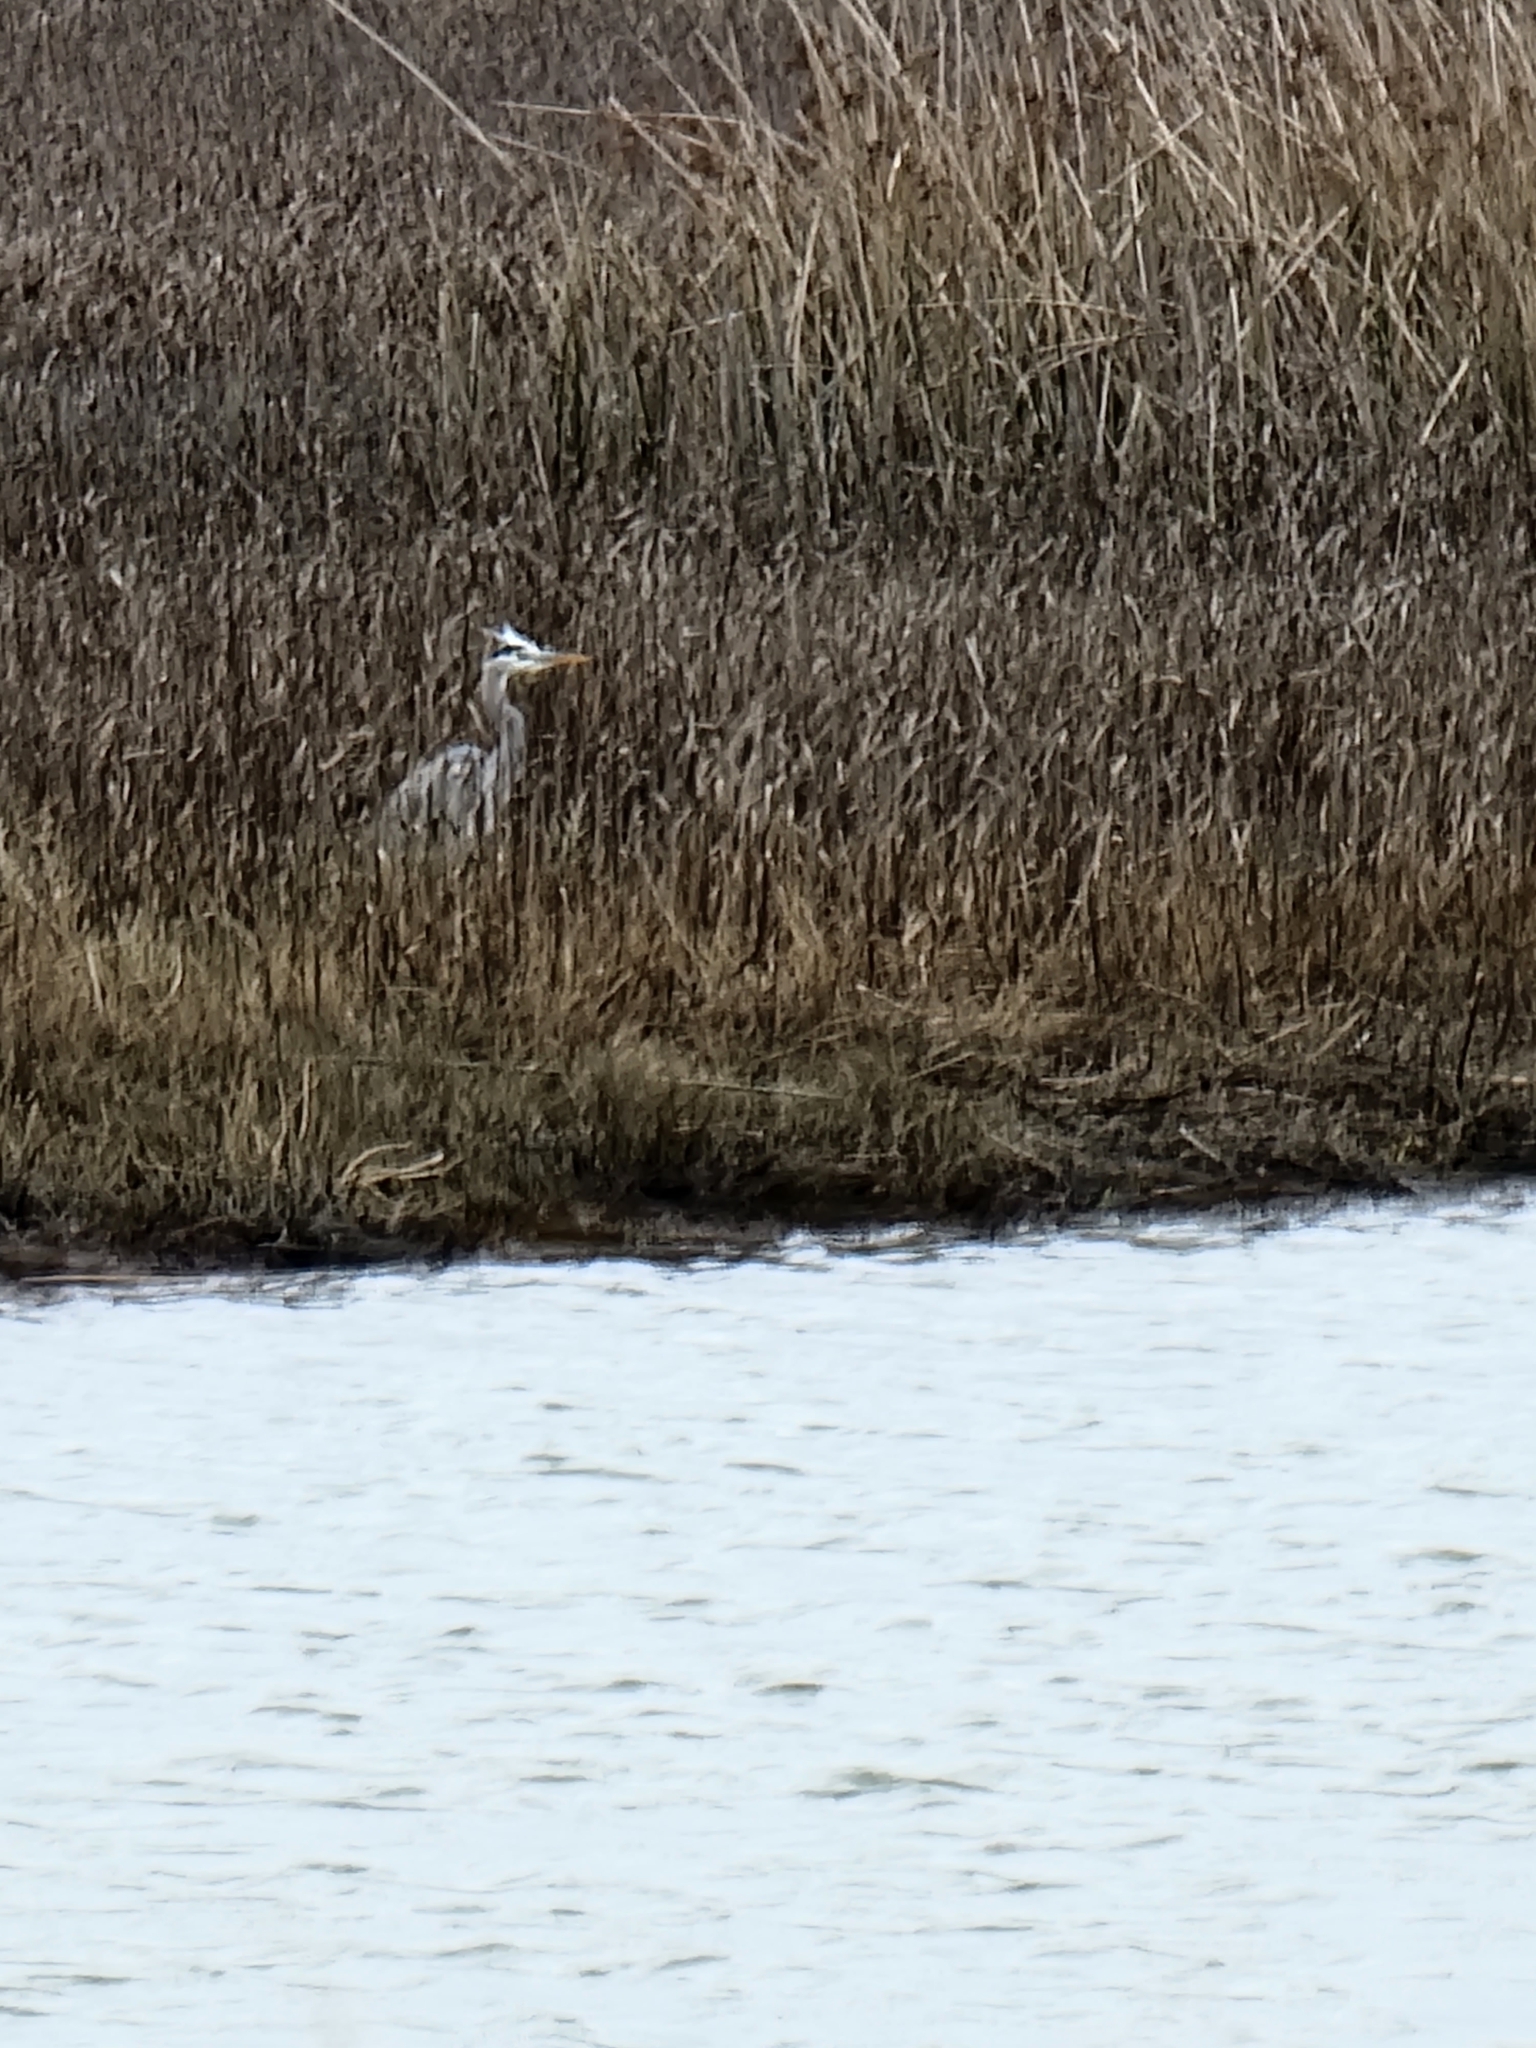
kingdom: Animalia
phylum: Chordata
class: Aves
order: Pelecaniformes
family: Ardeidae
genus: Ardea
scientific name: Ardea herodias
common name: Great blue heron
